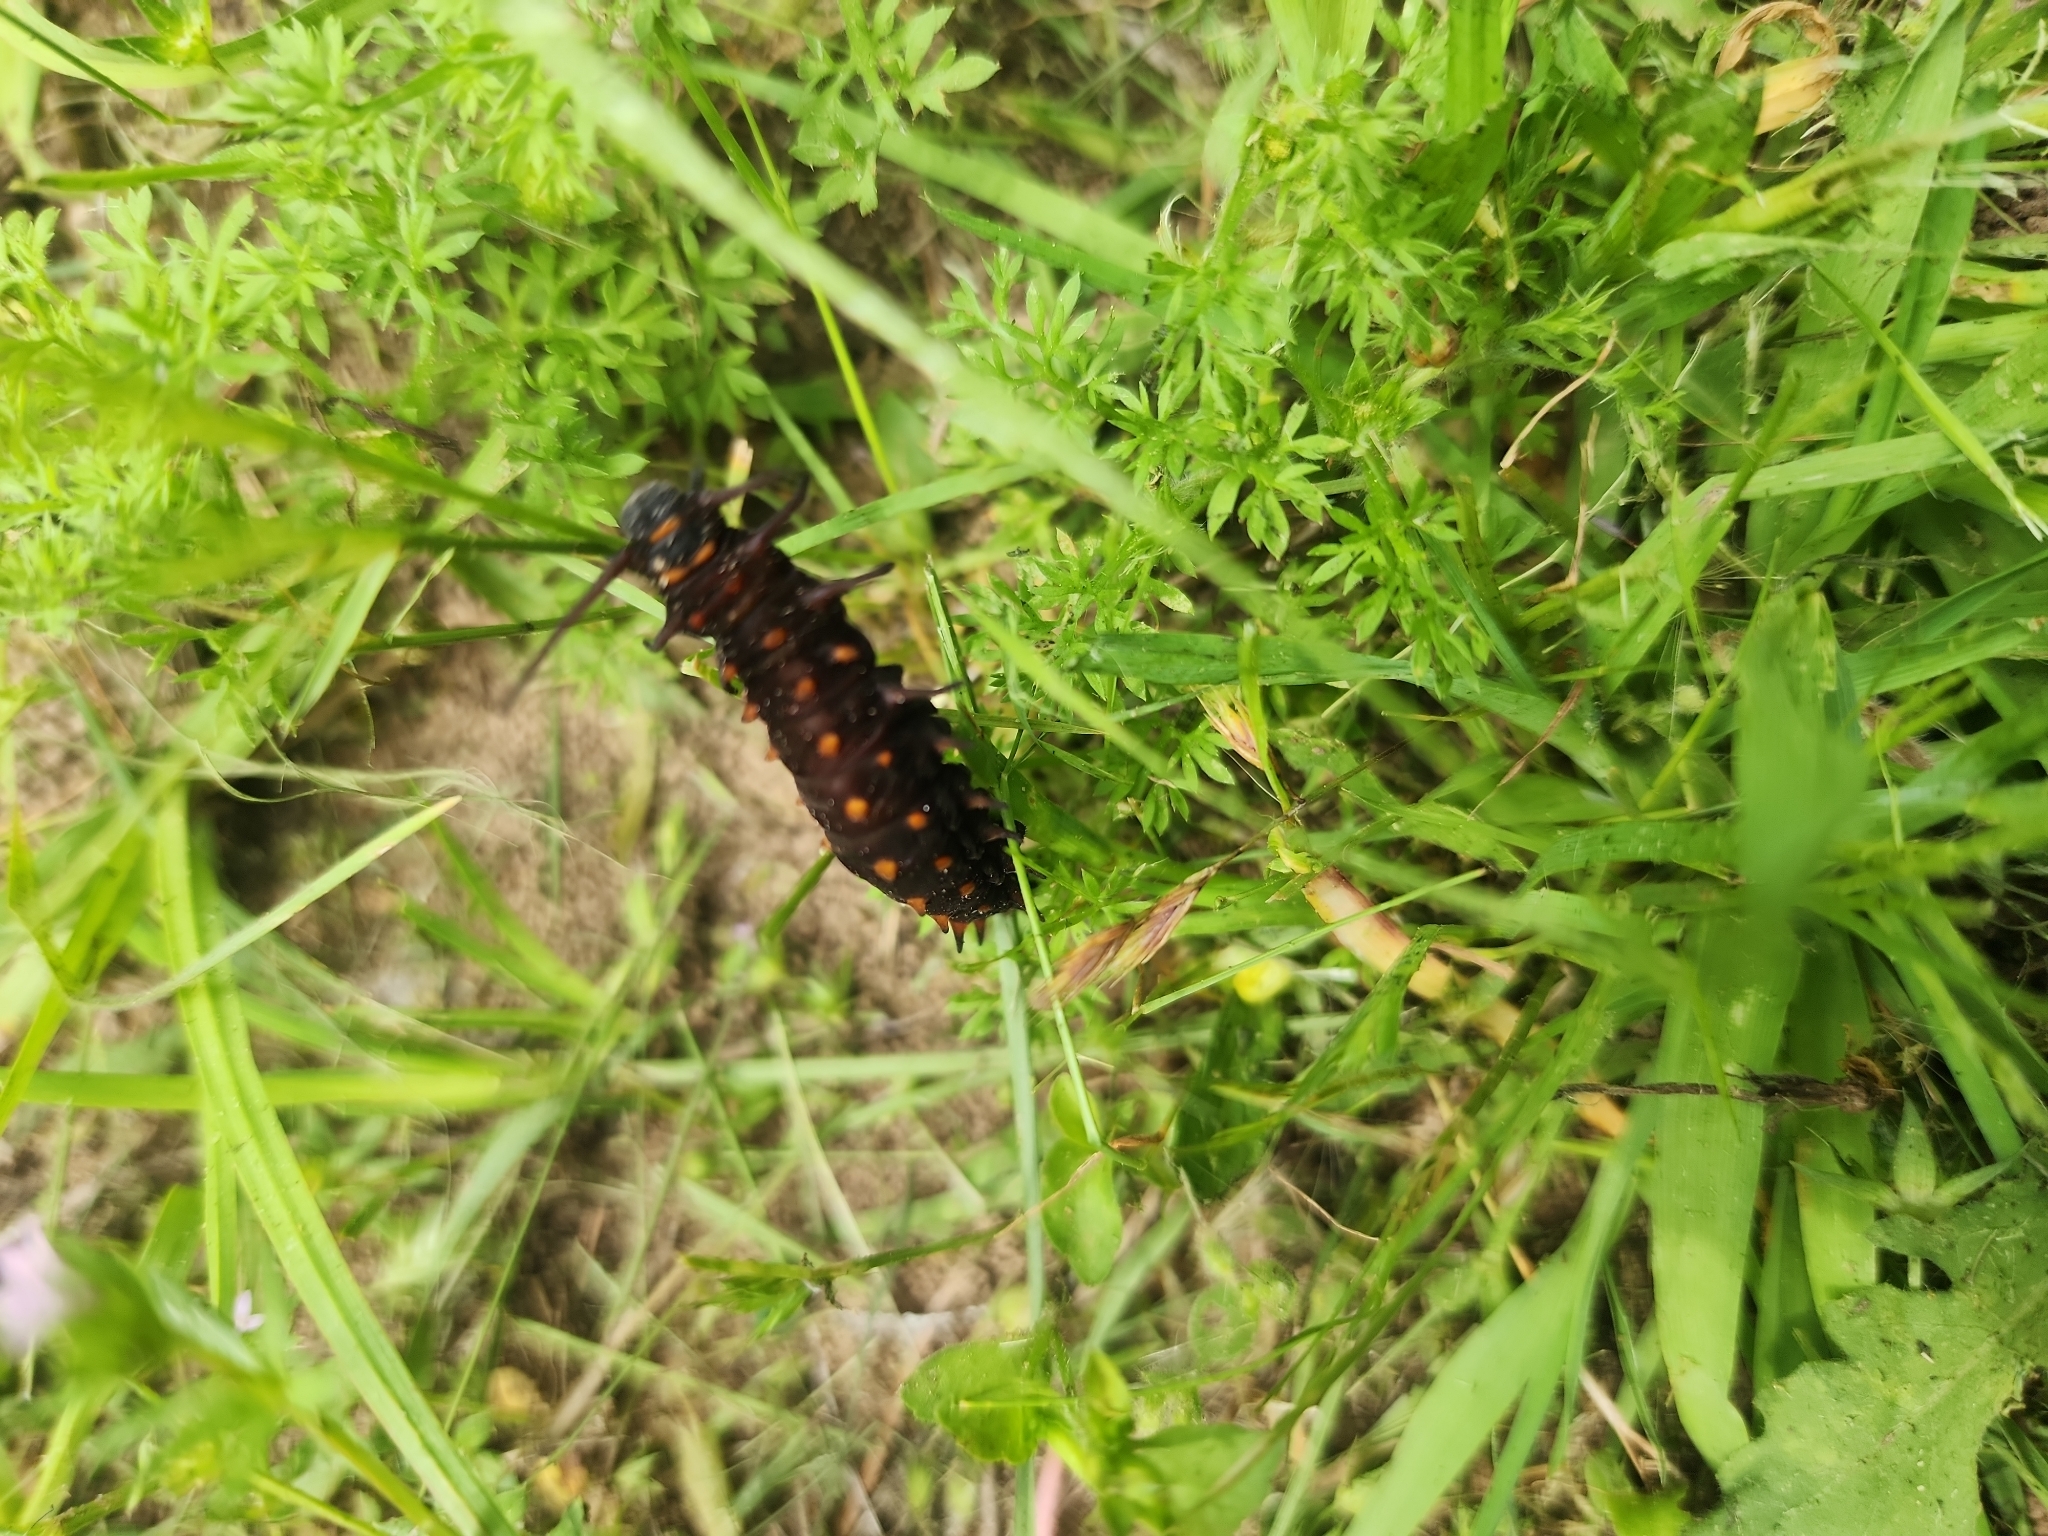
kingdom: Animalia
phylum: Arthropoda
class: Insecta
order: Lepidoptera
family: Papilionidae
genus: Battus
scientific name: Battus philenor
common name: Pipevine swallowtail
